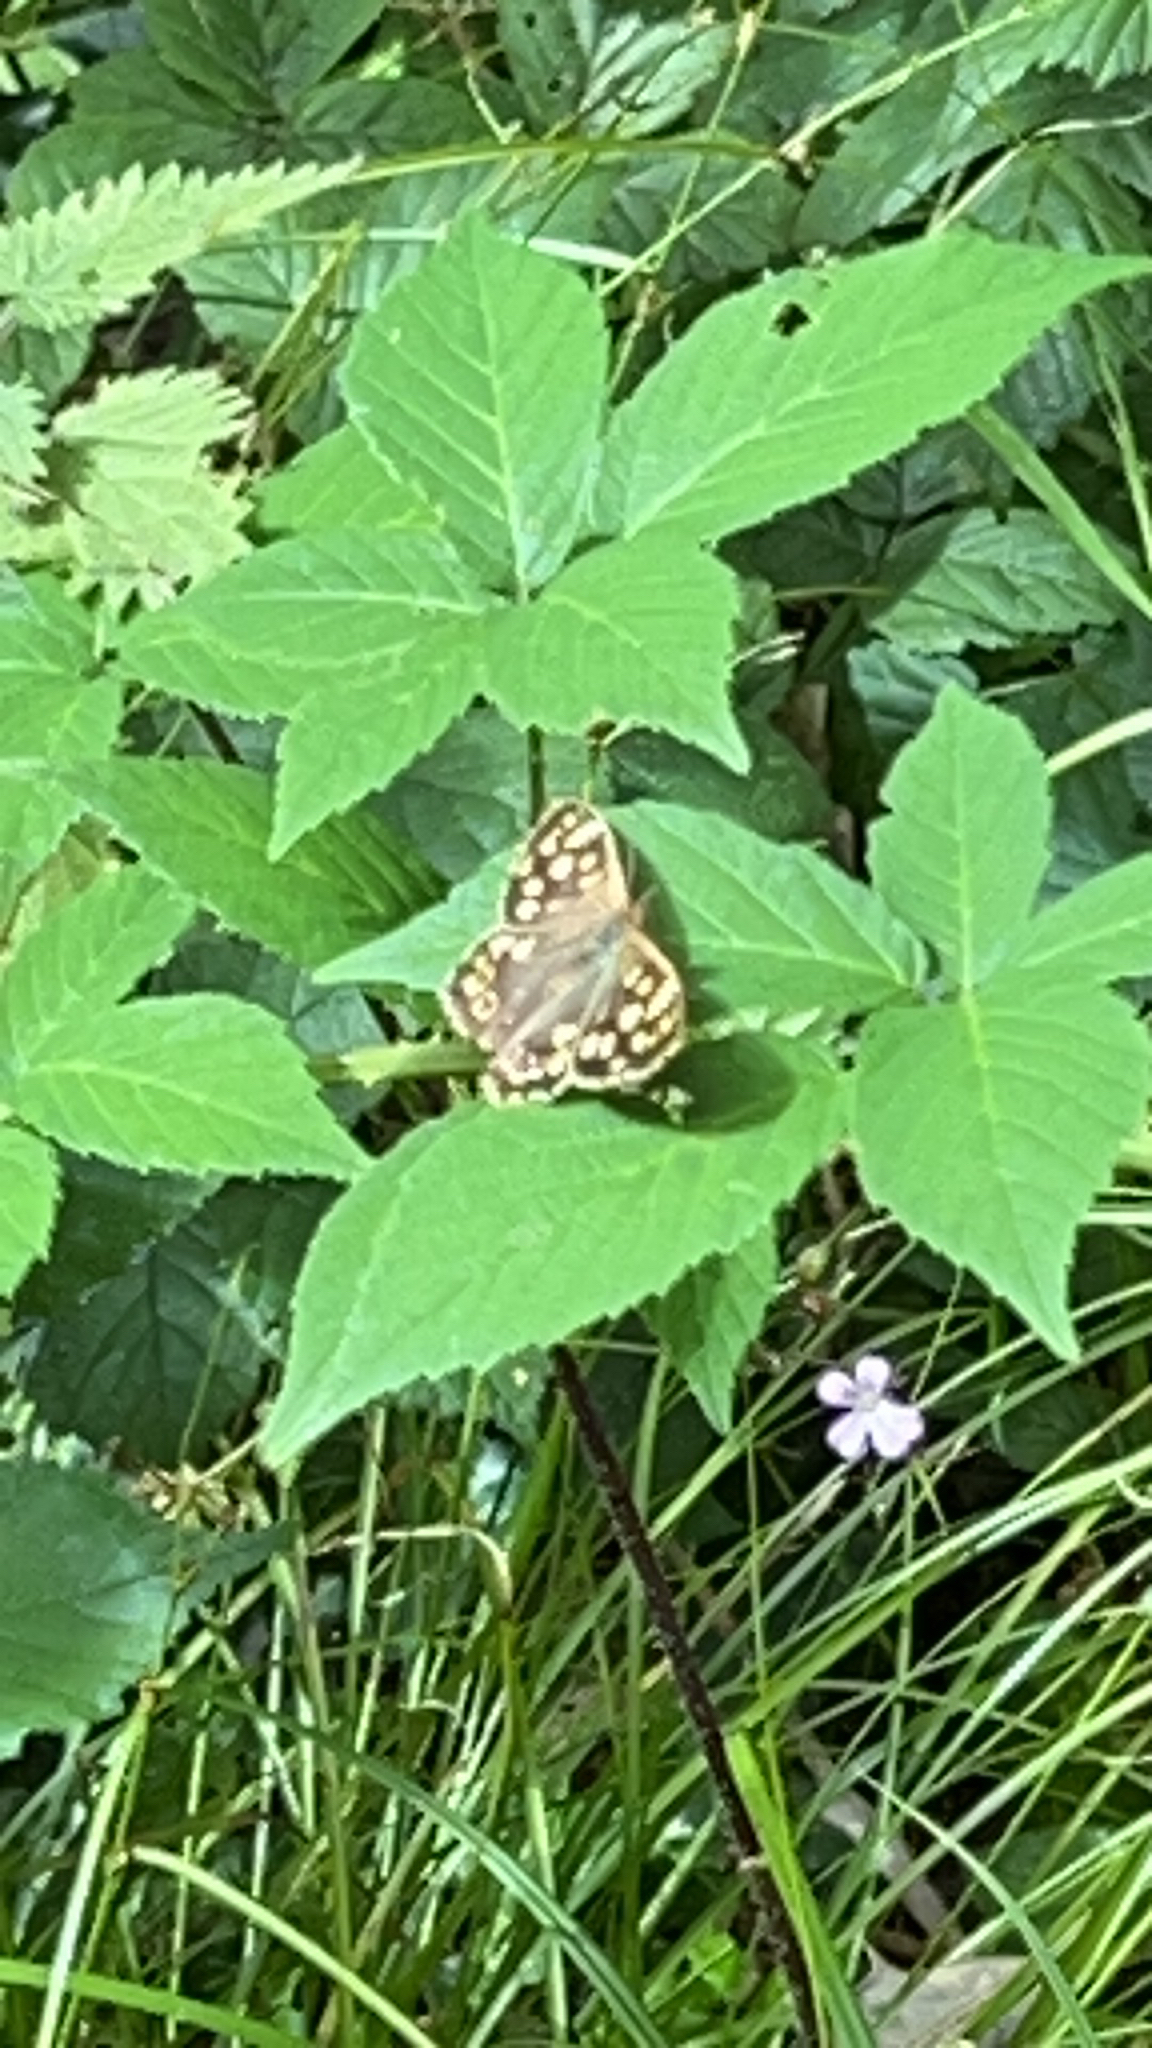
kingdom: Animalia
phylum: Arthropoda
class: Insecta
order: Lepidoptera
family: Nymphalidae
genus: Pararge
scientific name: Pararge aegeria
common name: Speckled wood
